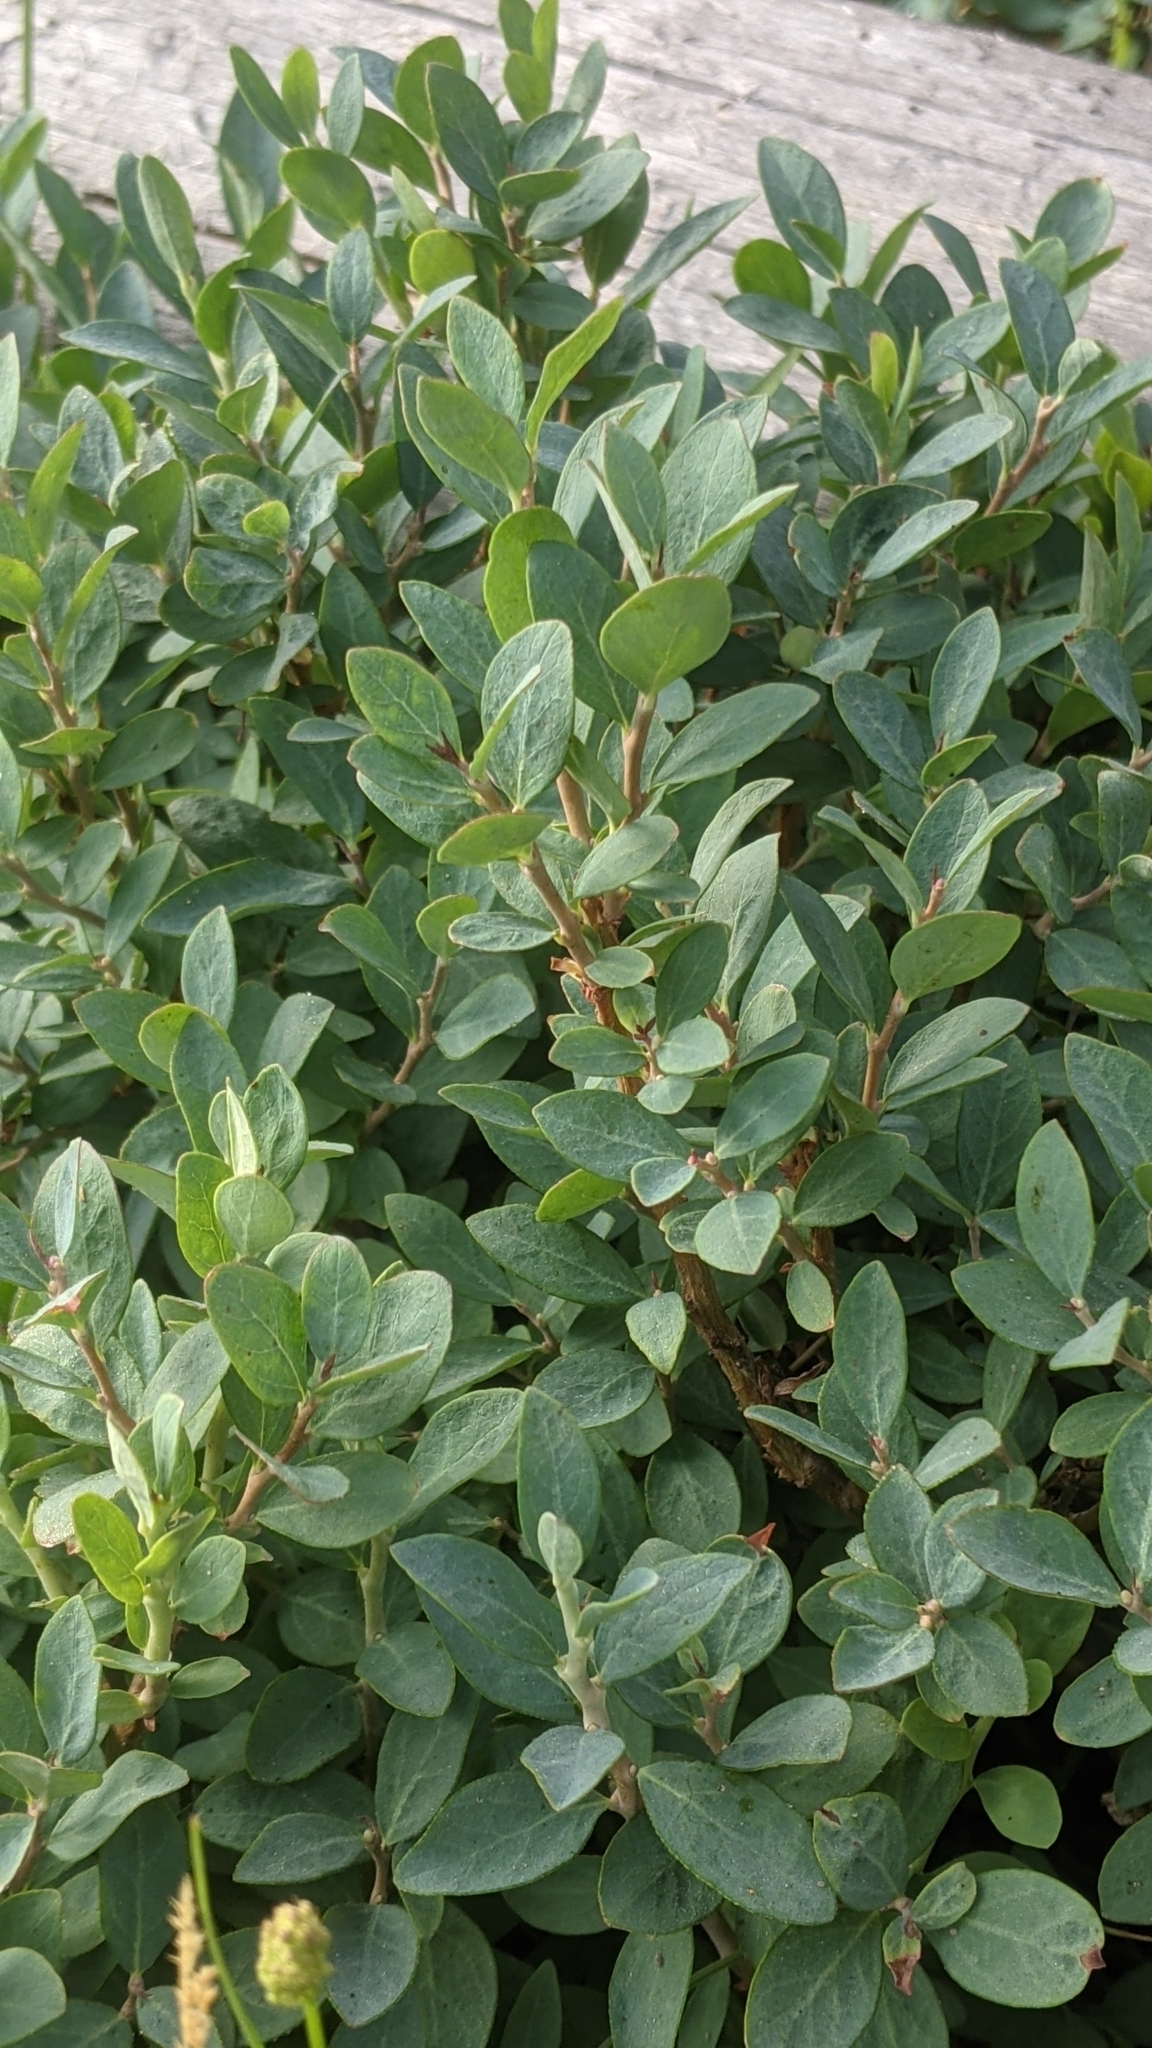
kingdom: Plantae
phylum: Tracheophyta
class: Magnoliopsida
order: Ericales
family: Ericaceae
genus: Vaccinium
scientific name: Vaccinium uliginosum
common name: Bog bilberry
